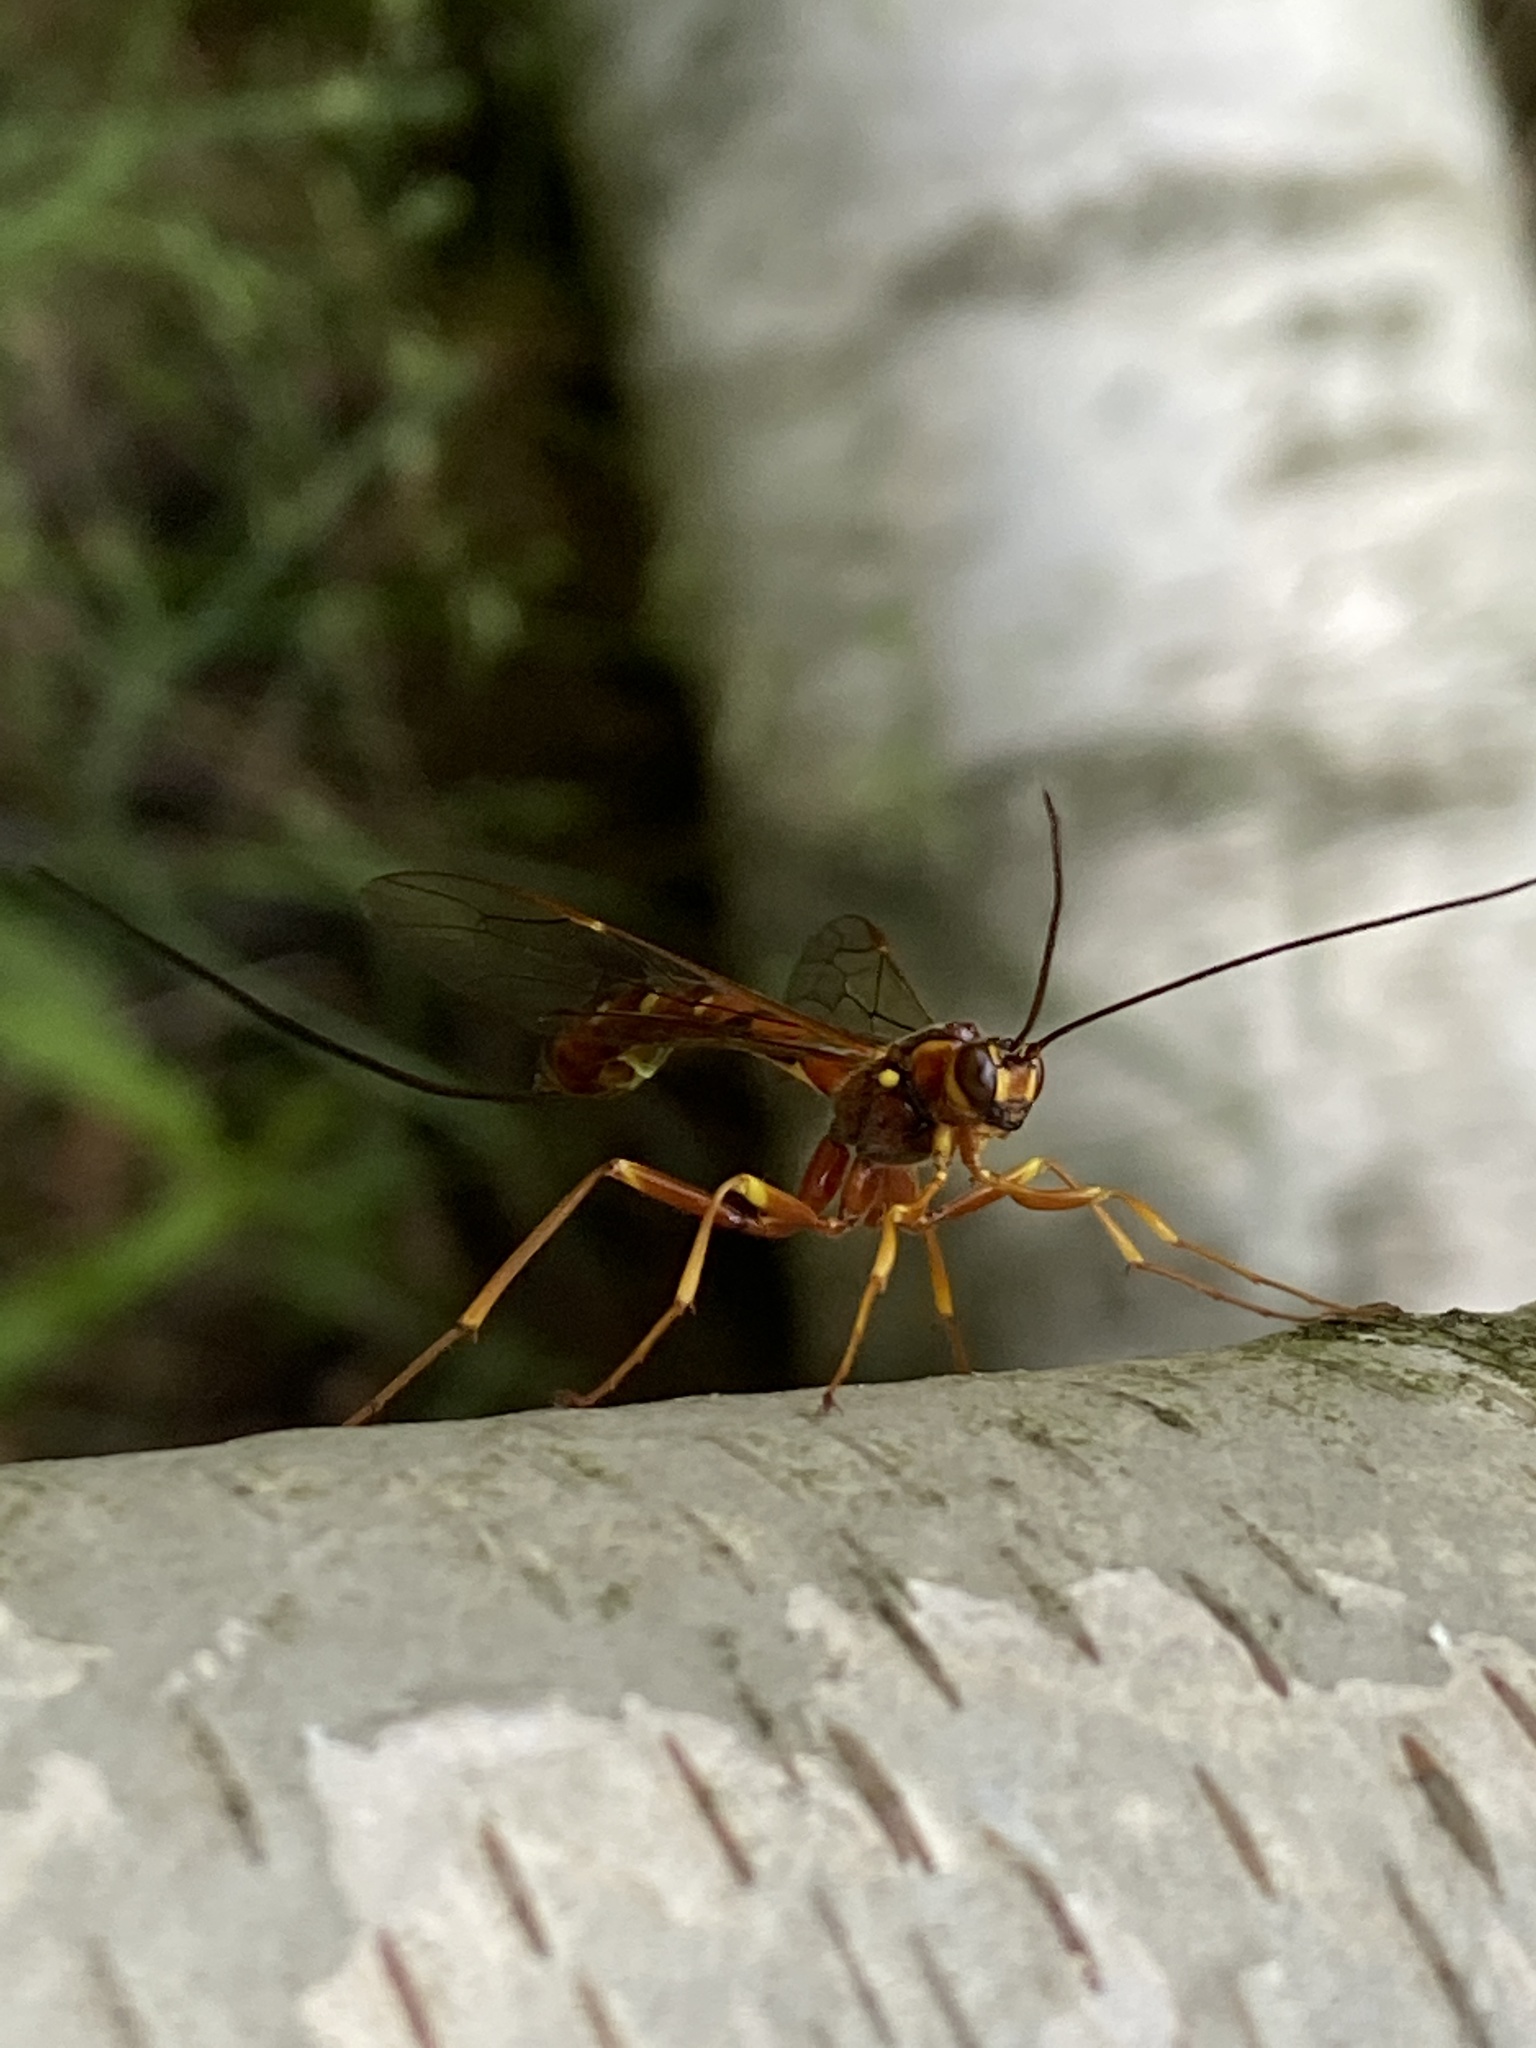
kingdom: Animalia
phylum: Arthropoda
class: Insecta
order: Hymenoptera
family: Ichneumonidae
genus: Megarhyssa
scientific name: Megarhyssa vagatoria
